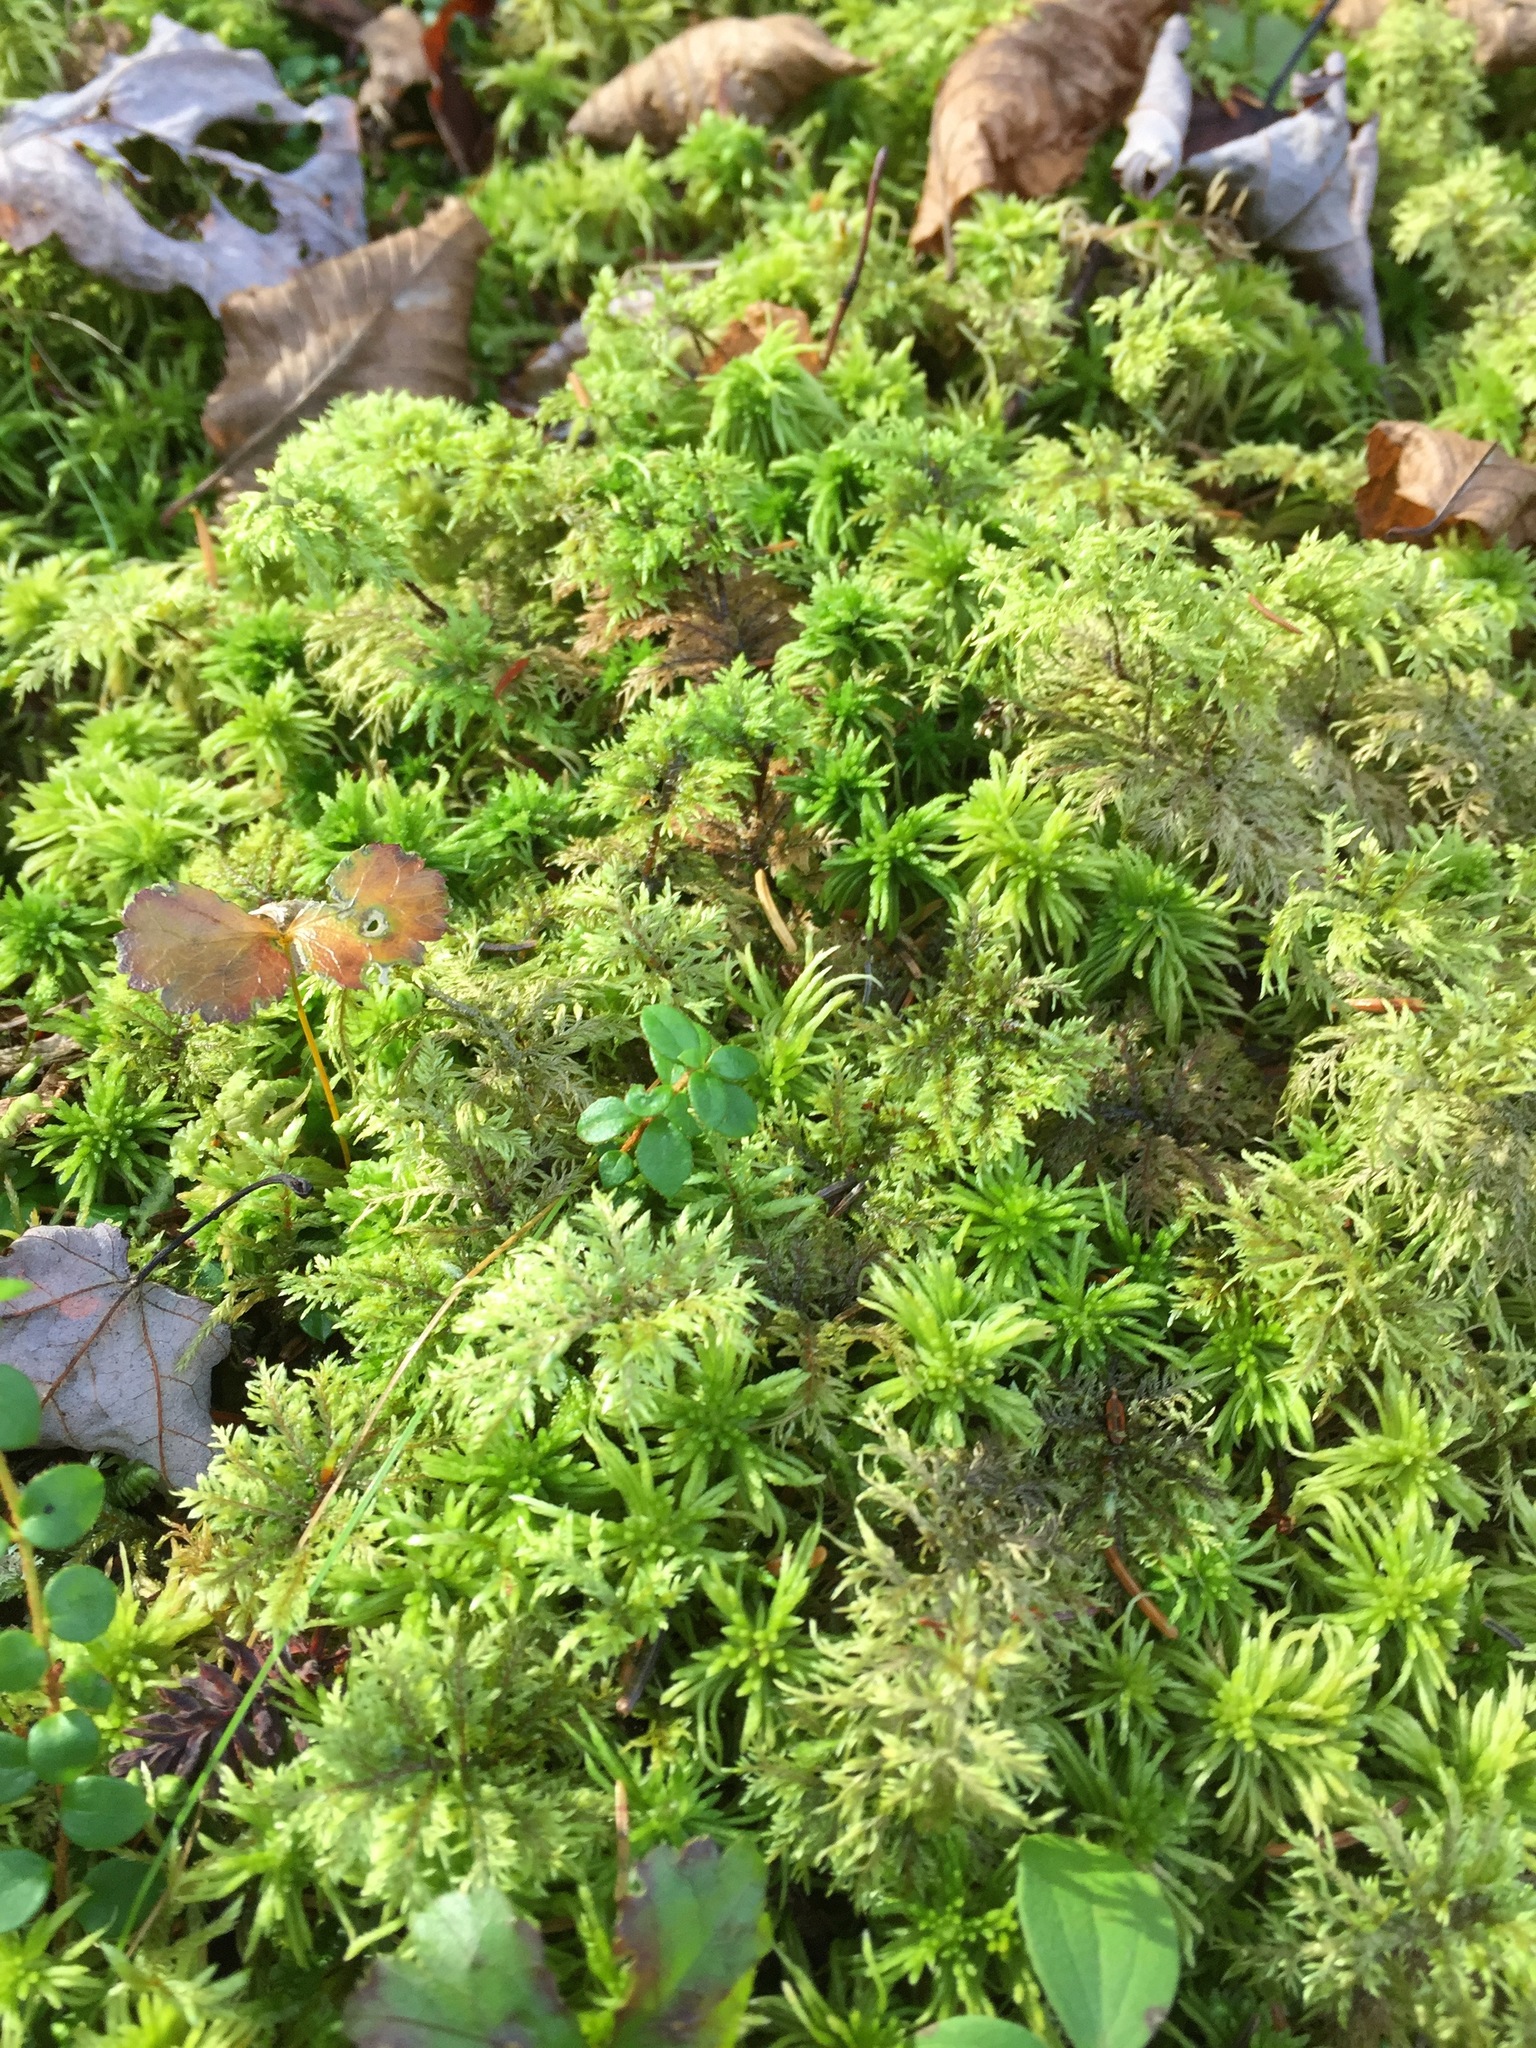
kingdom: Plantae
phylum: Bryophyta
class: Bryopsida
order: Hypnales
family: Hylocomiaceae
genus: Hylocomium
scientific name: Hylocomium splendens
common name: Stairstep moss
